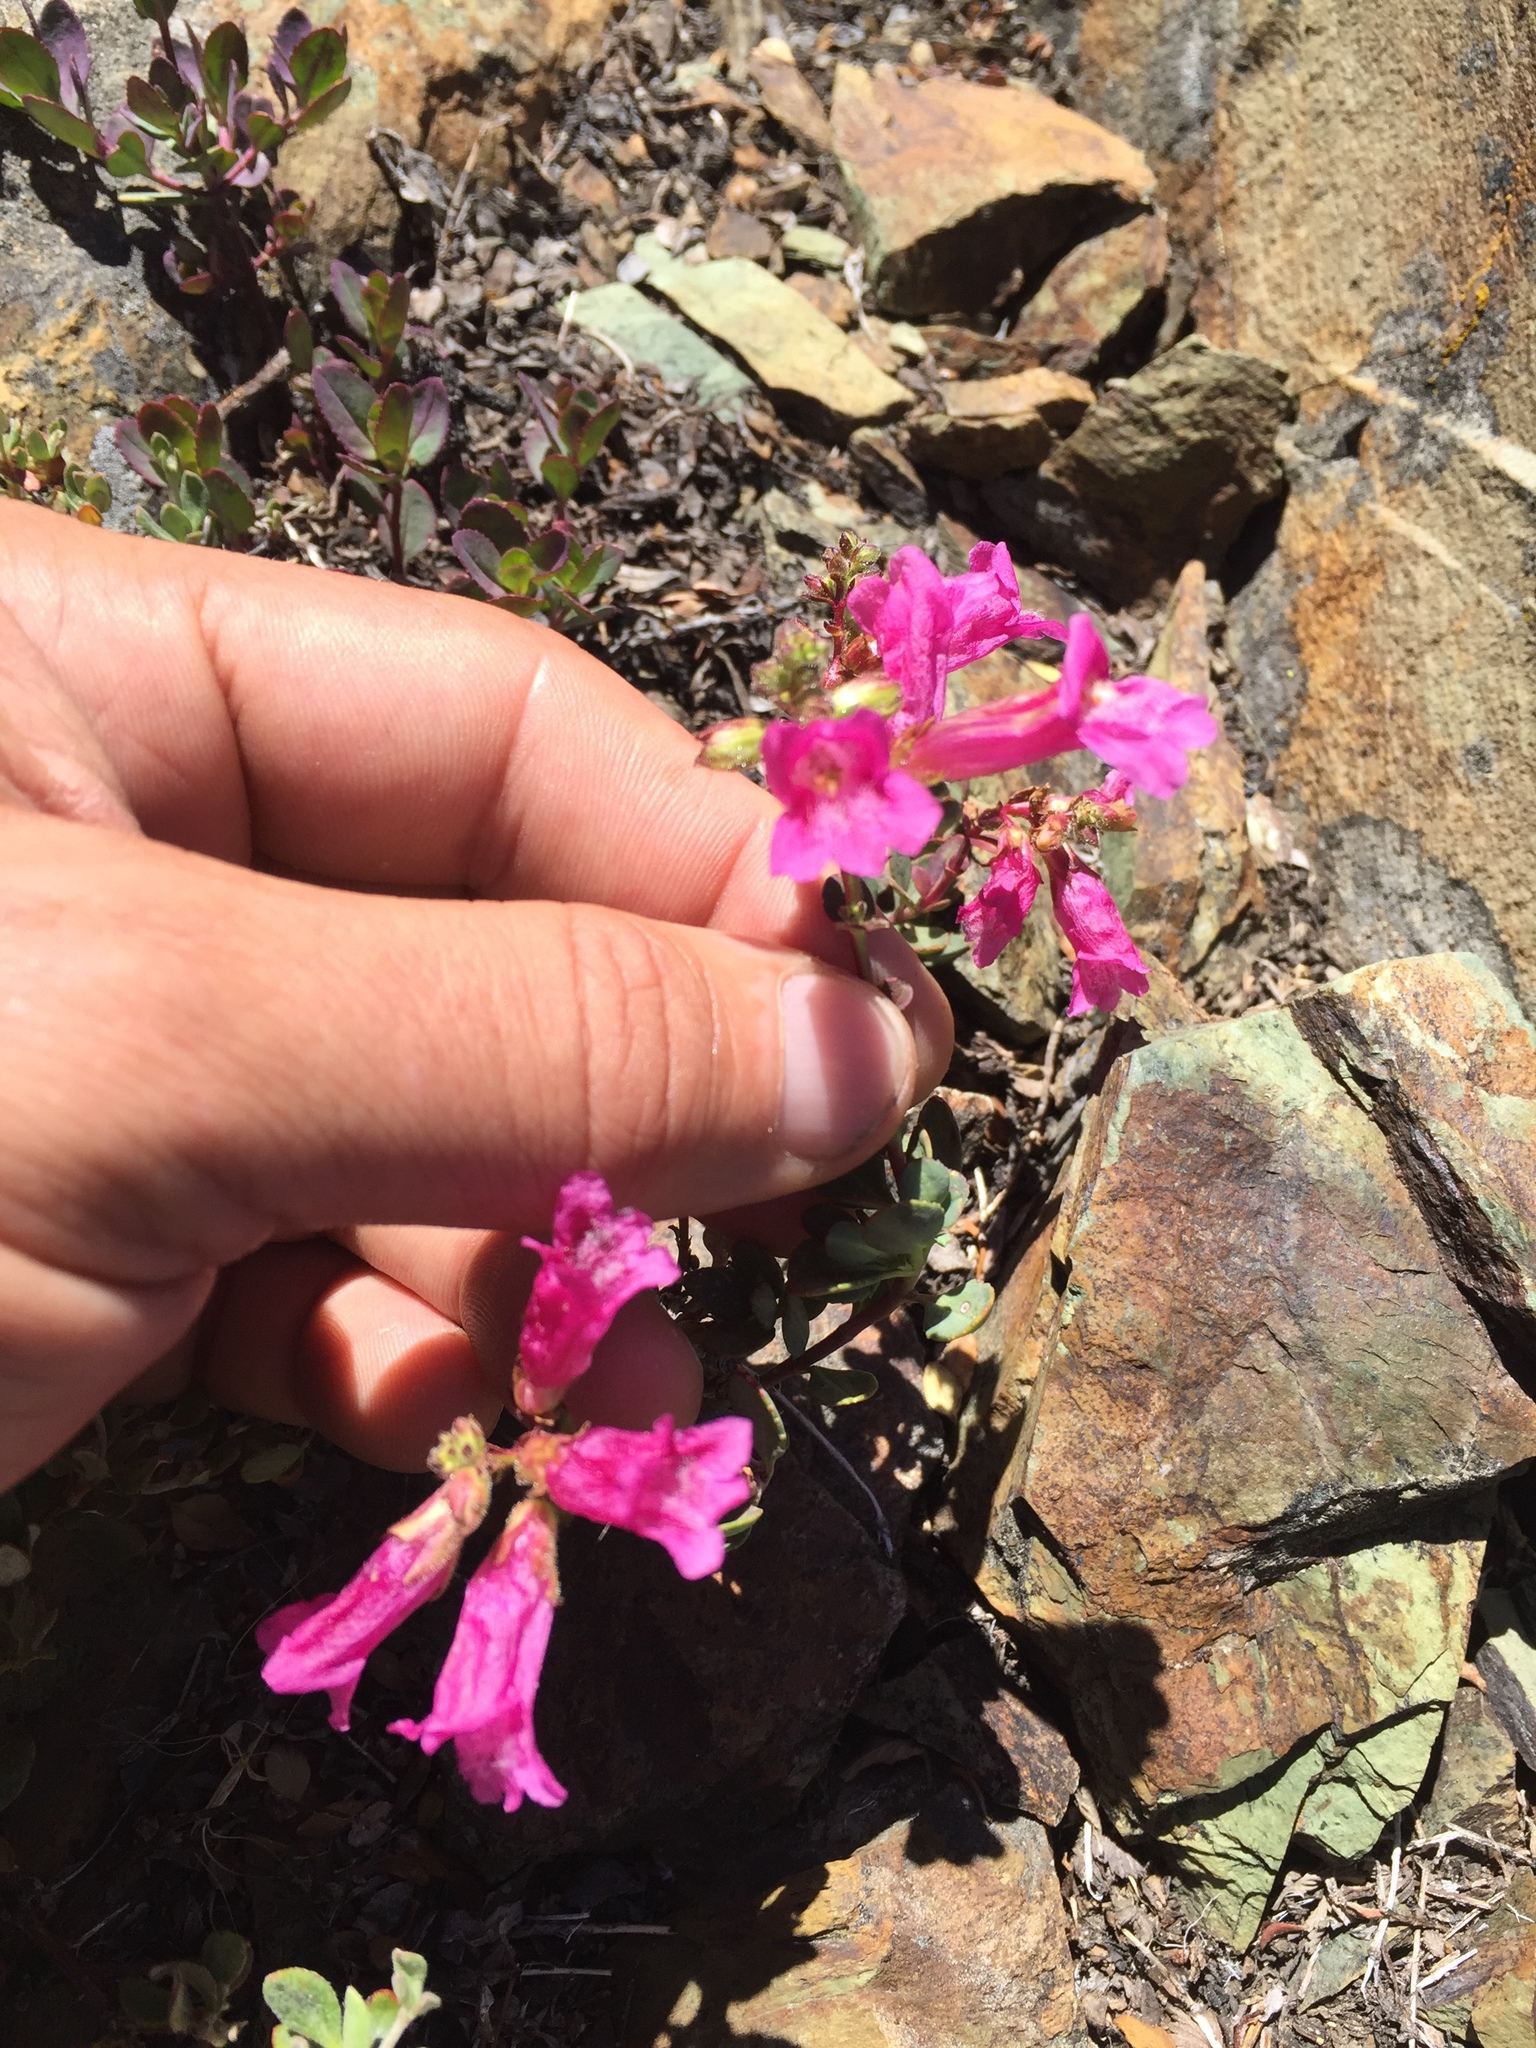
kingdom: Plantae
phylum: Tracheophyta
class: Magnoliopsida
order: Lamiales
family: Plantaginaceae
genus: Penstemon
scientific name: Penstemon newberryi
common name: Mountain-pride
